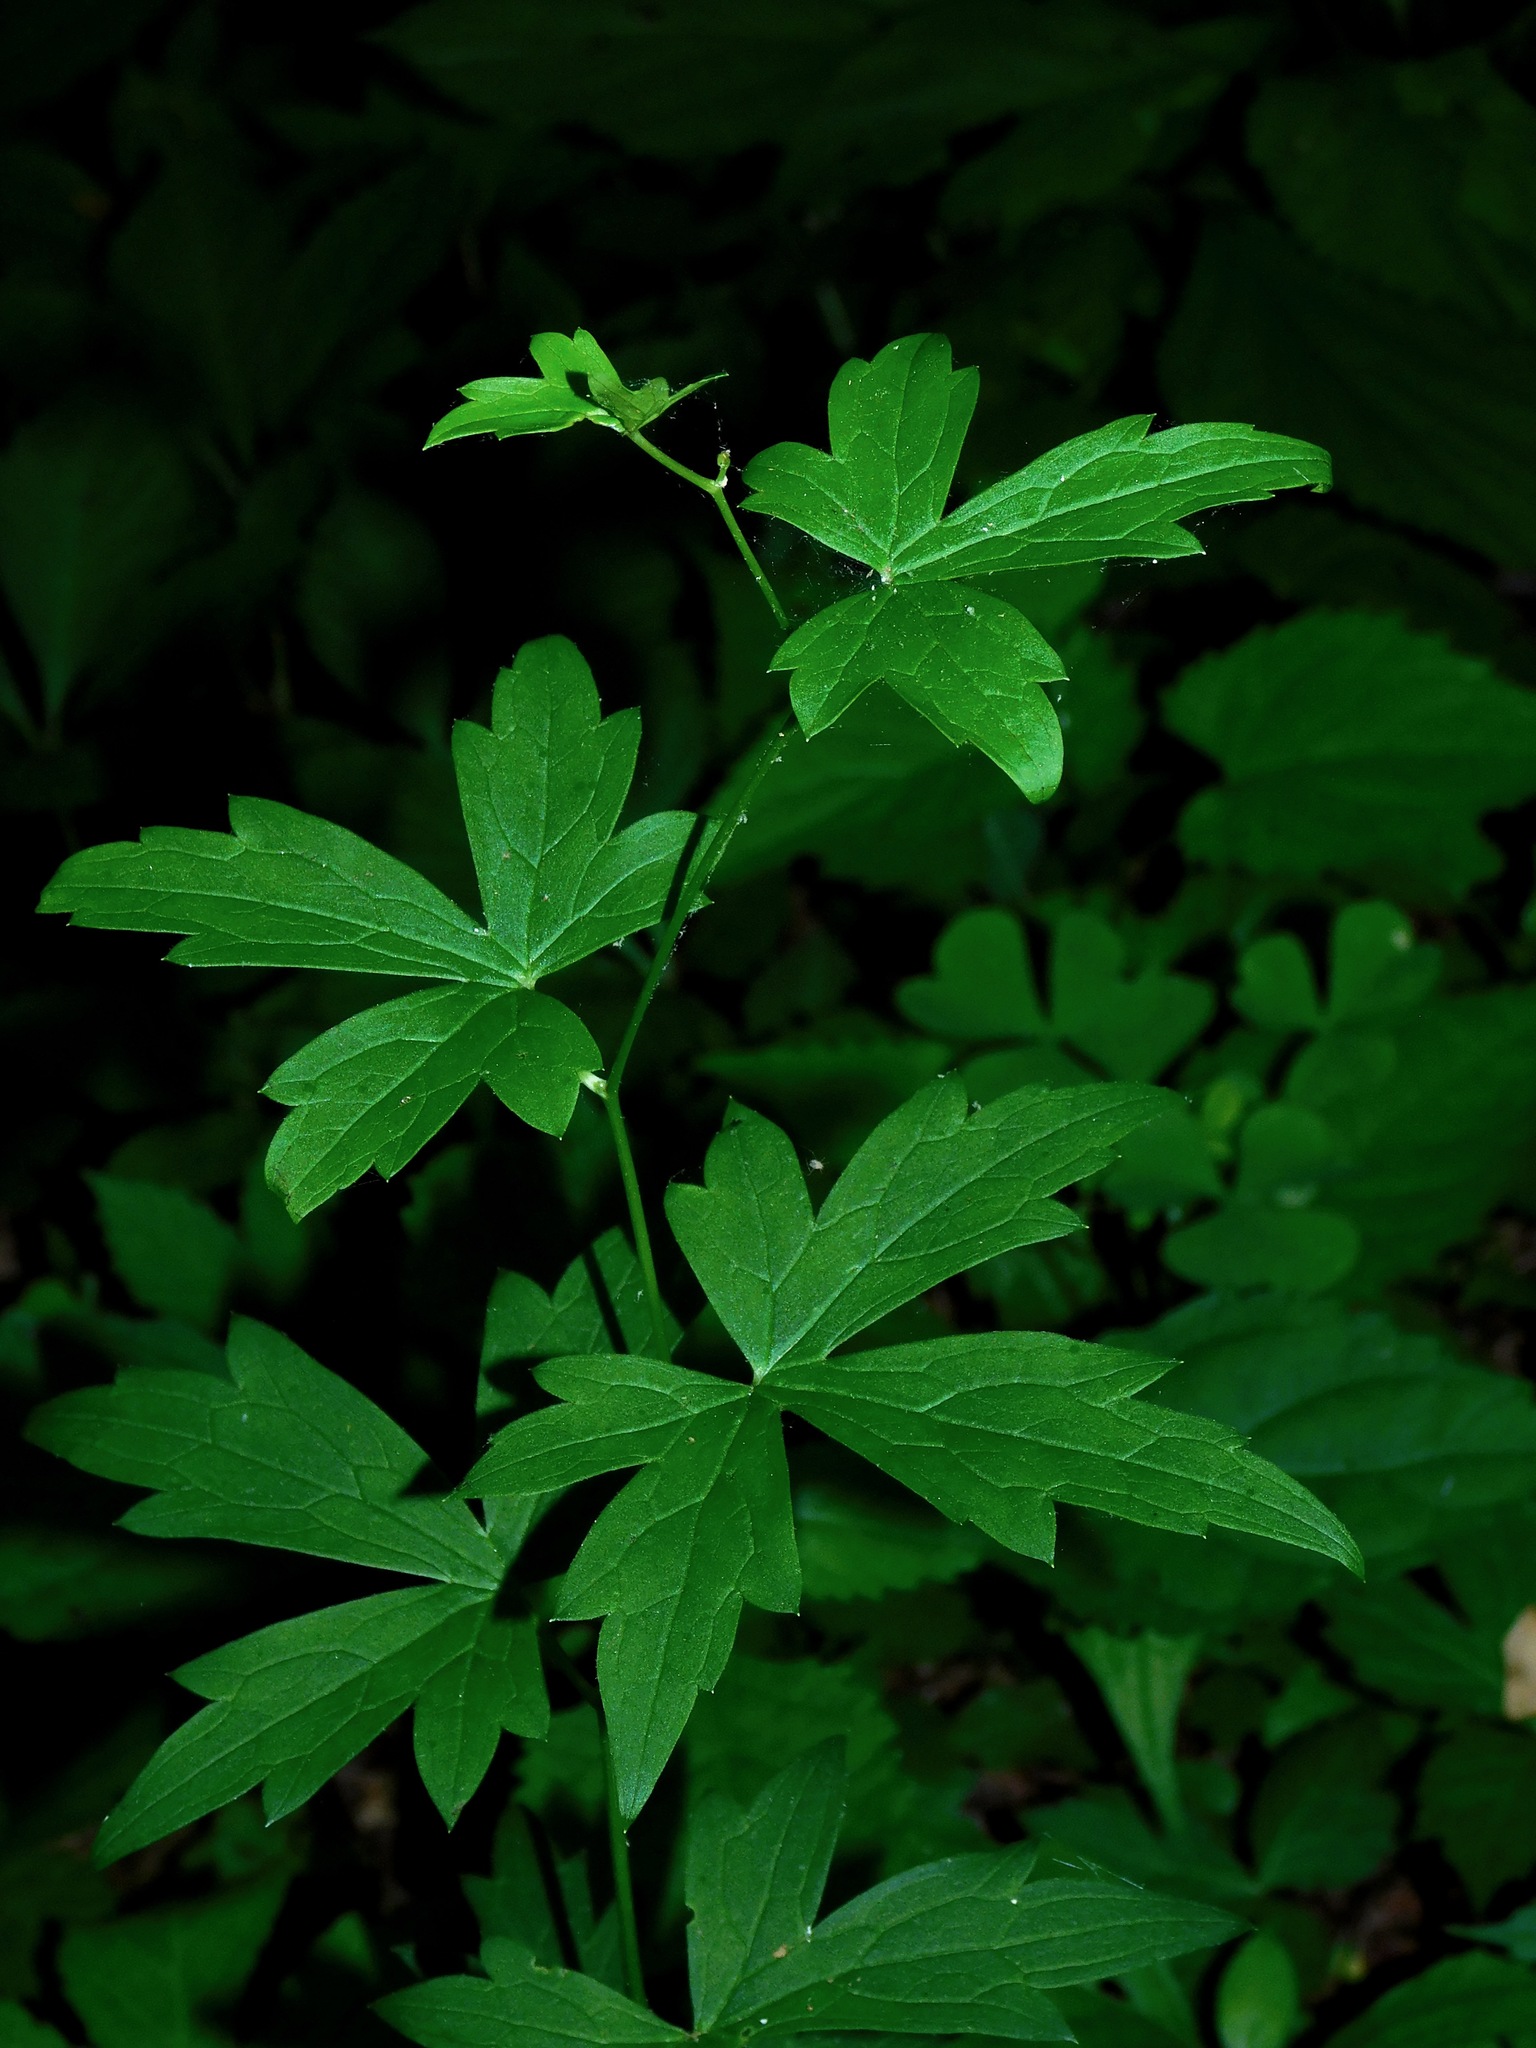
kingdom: Plantae
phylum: Tracheophyta
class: Magnoliopsida
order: Ranunculales
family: Ranunculaceae
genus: Aconitum
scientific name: Aconitum uncinatum
